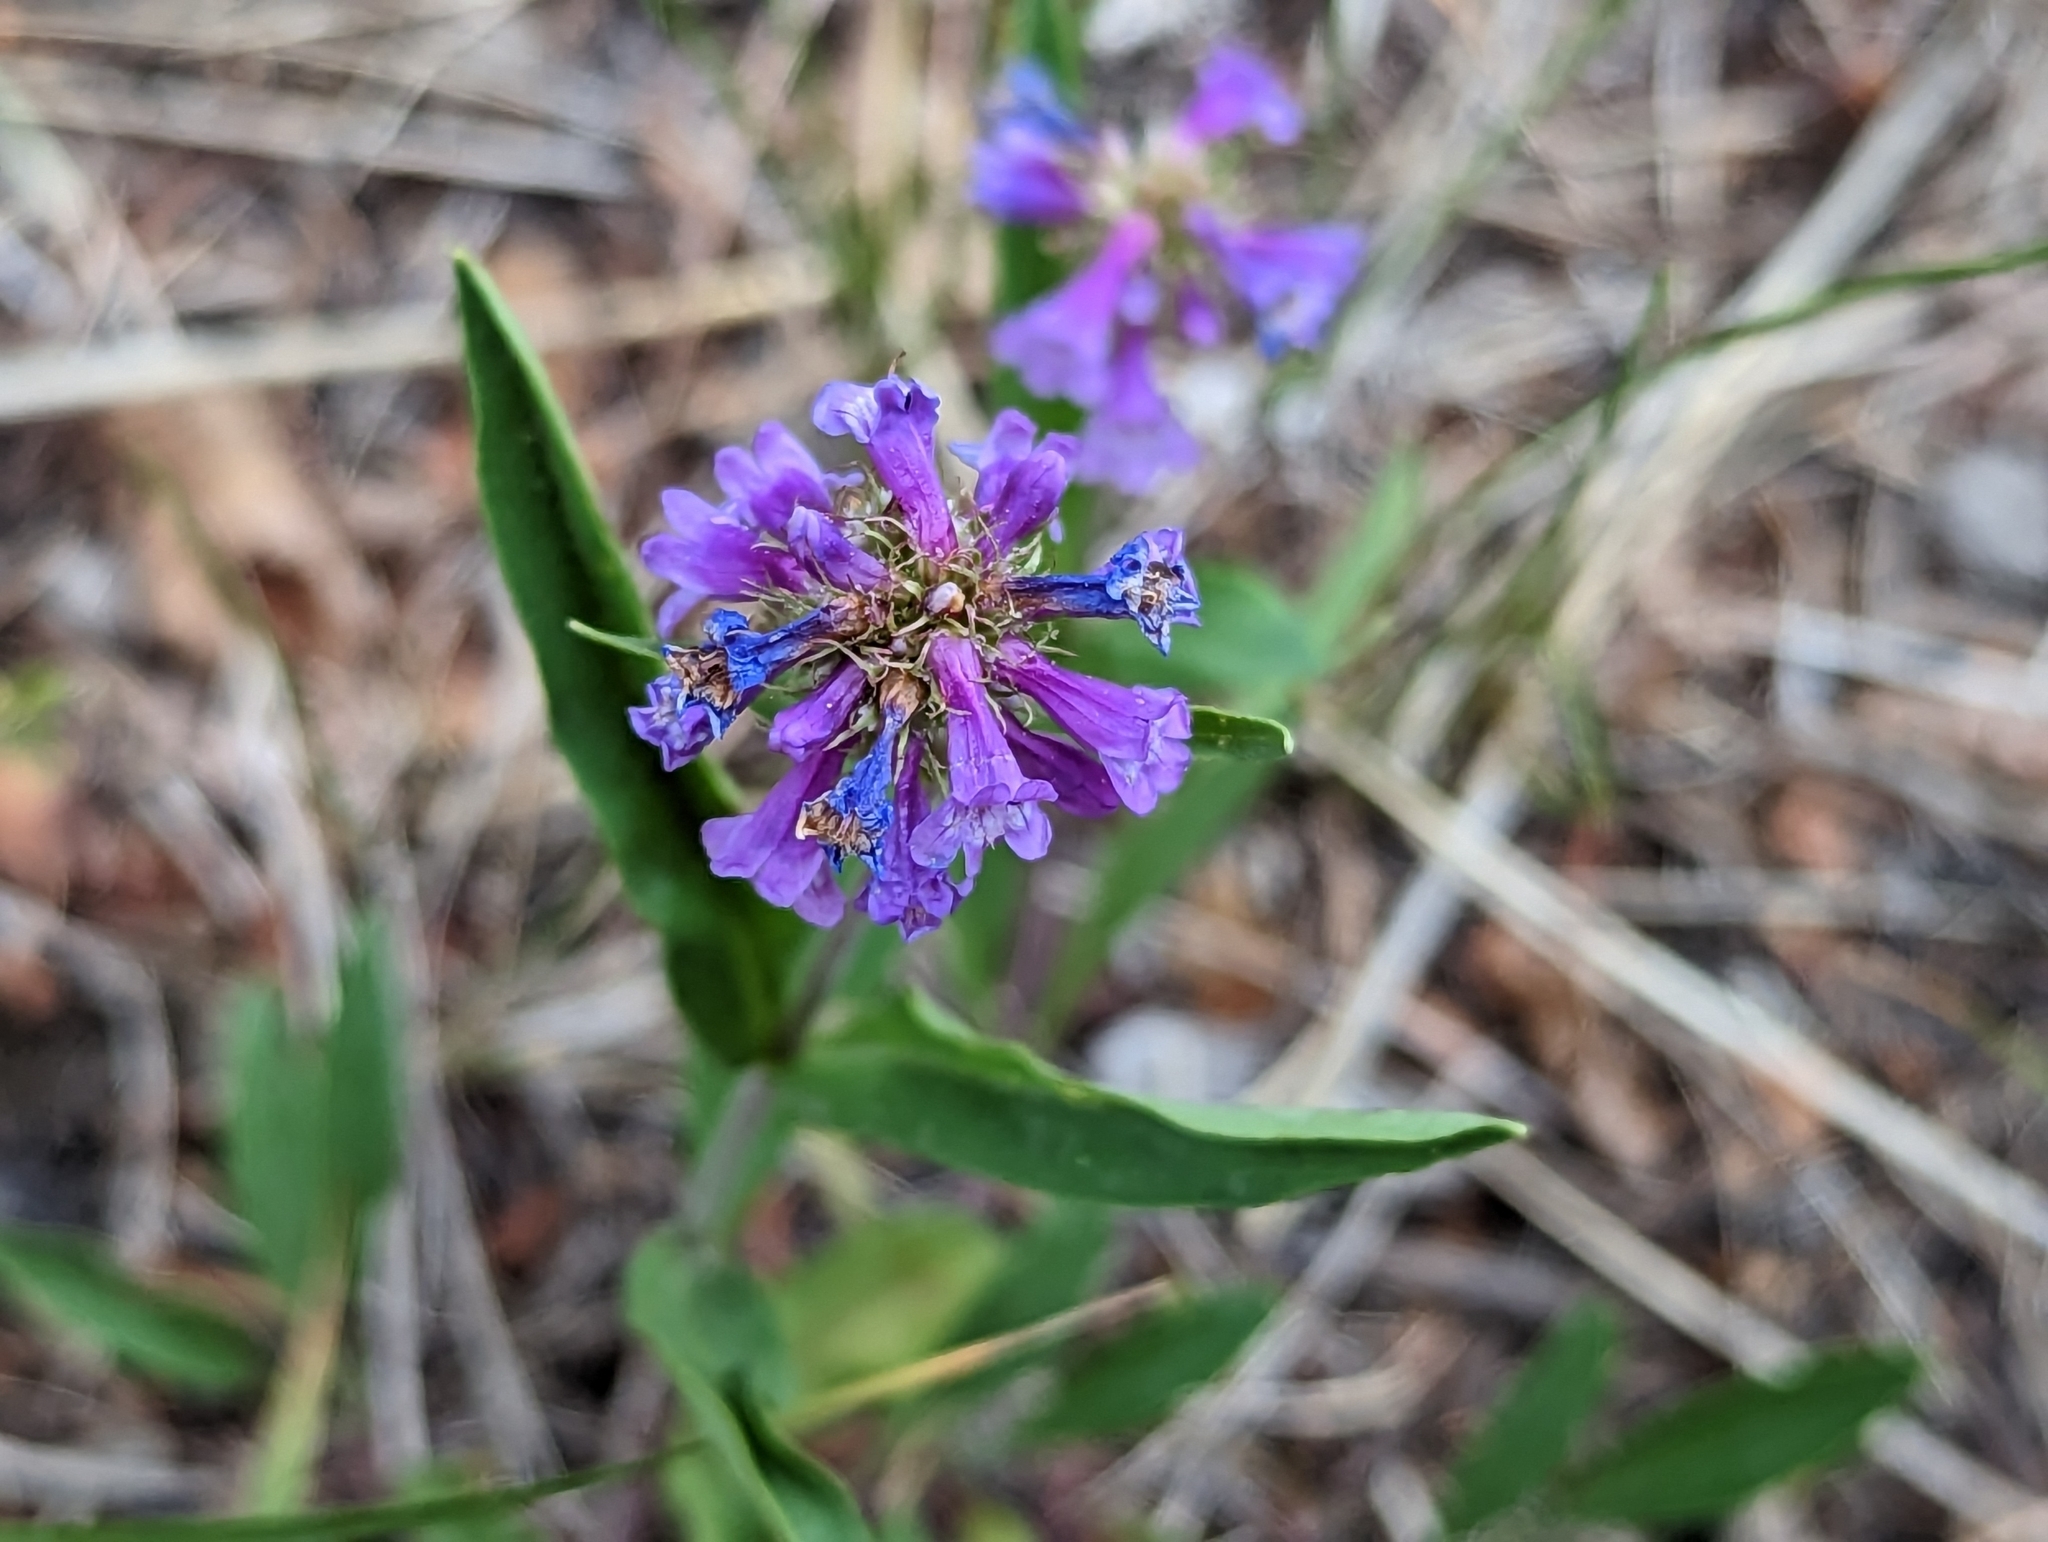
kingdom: Plantae
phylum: Tracheophyta
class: Magnoliopsida
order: Lamiales
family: Plantaginaceae
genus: Penstemon
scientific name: Penstemon procerus
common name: Small-flower penstemon
